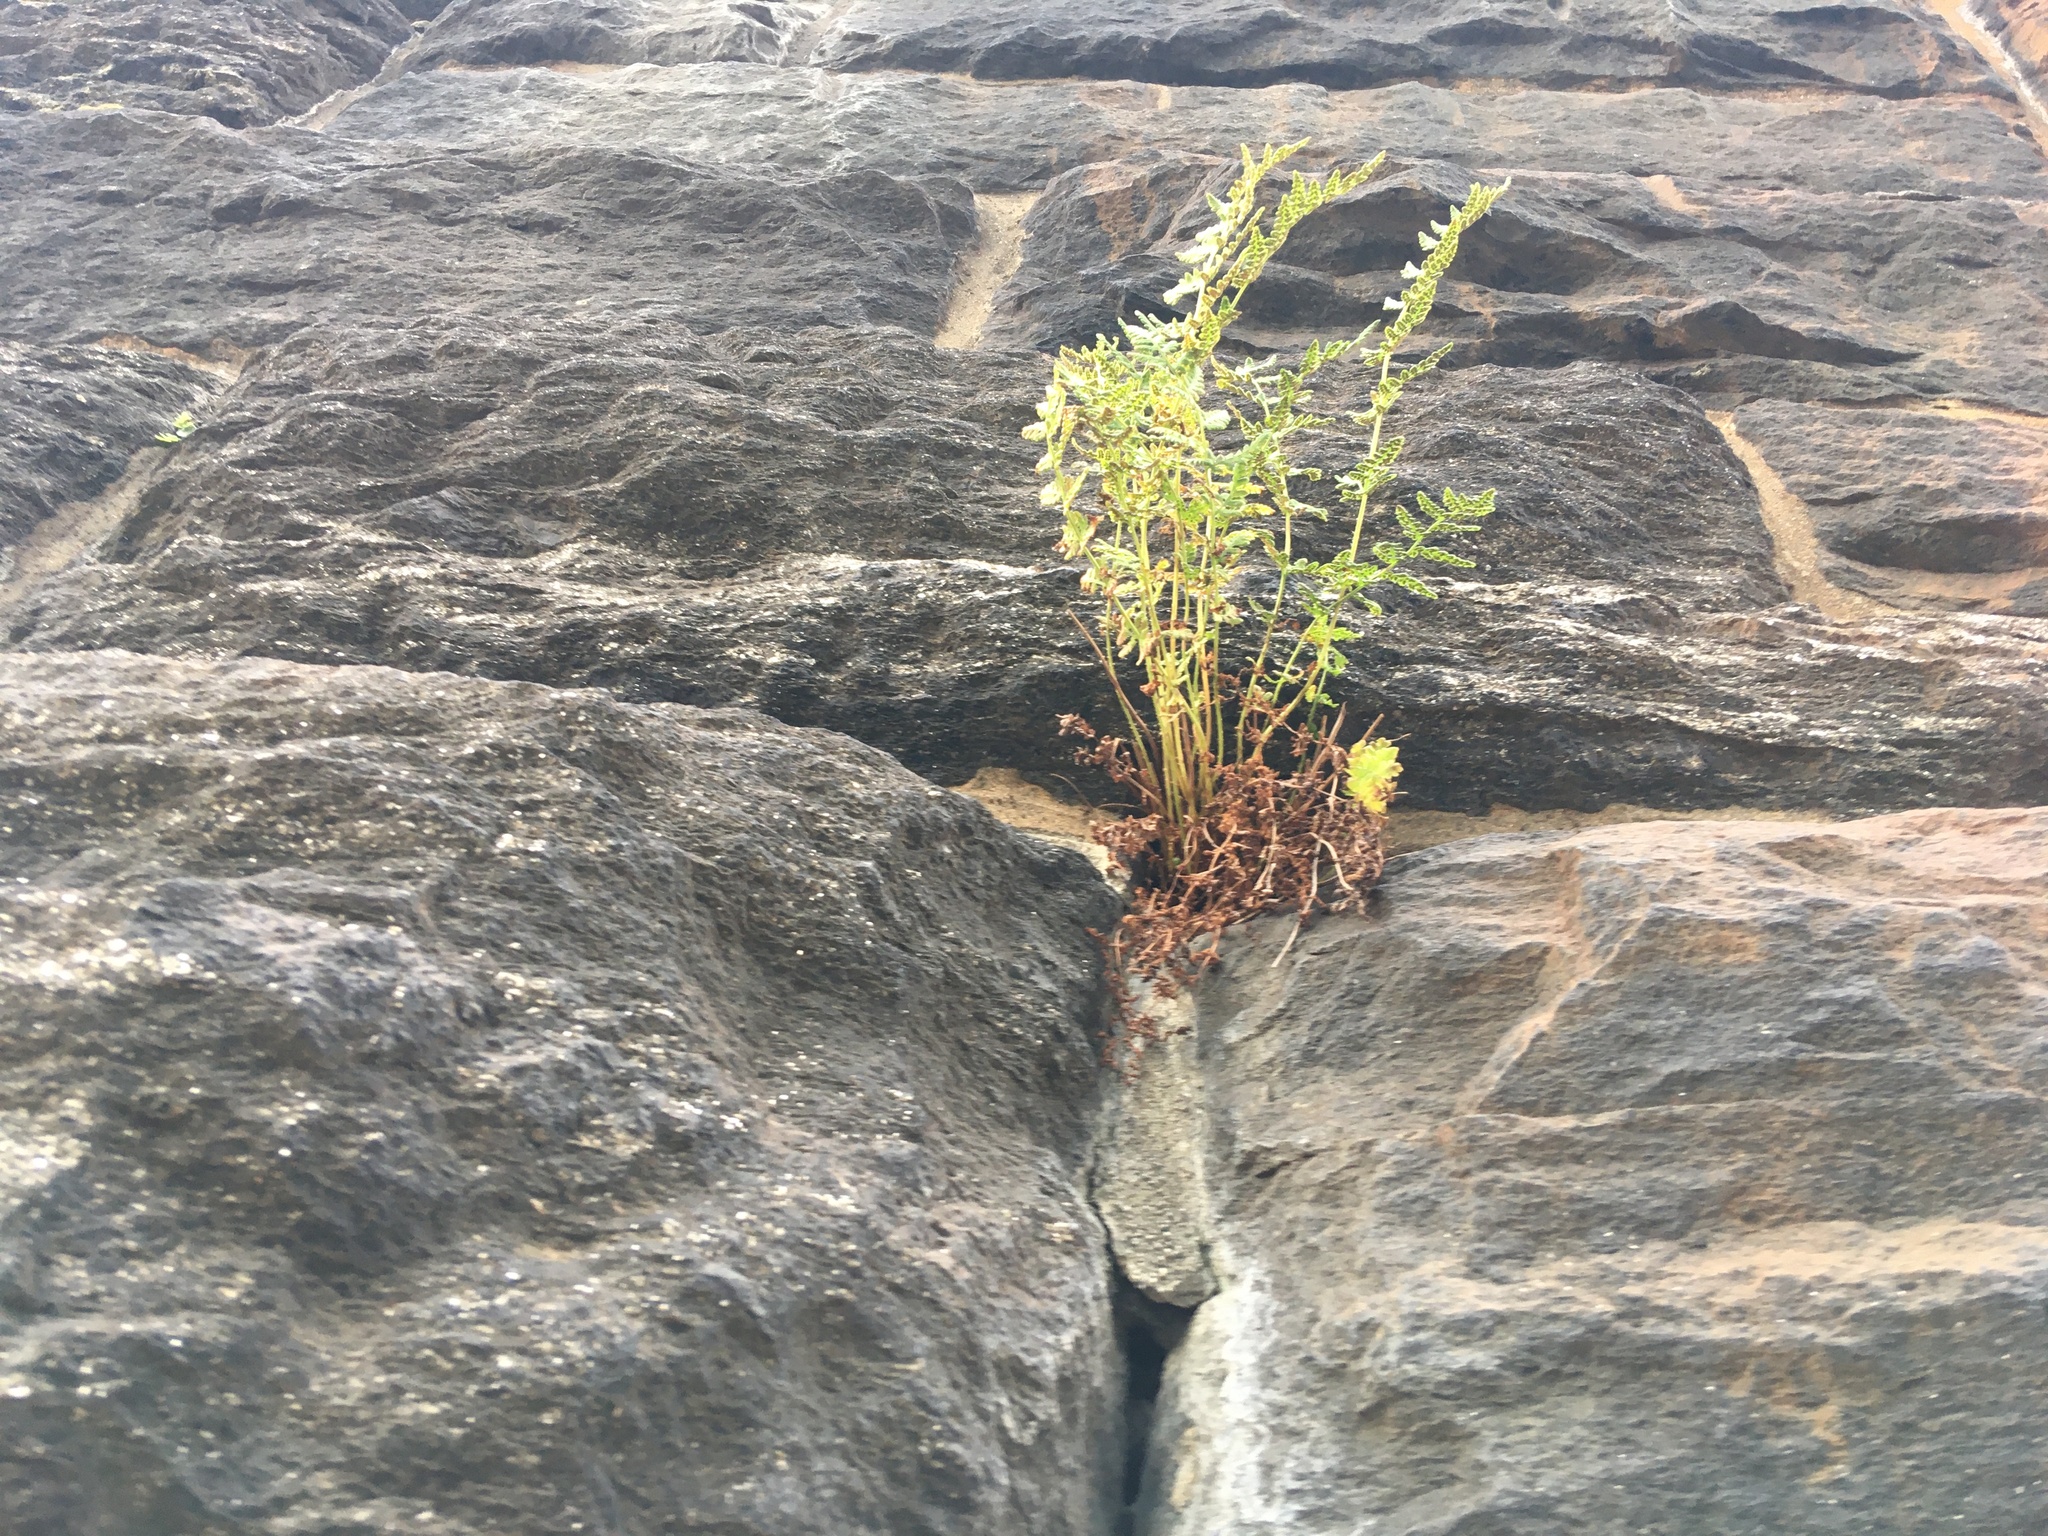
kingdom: Plantae
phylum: Tracheophyta
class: Polypodiopsida
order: Polypodiales
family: Woodsiaceae
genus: Physematium
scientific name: Physematium obtusum
